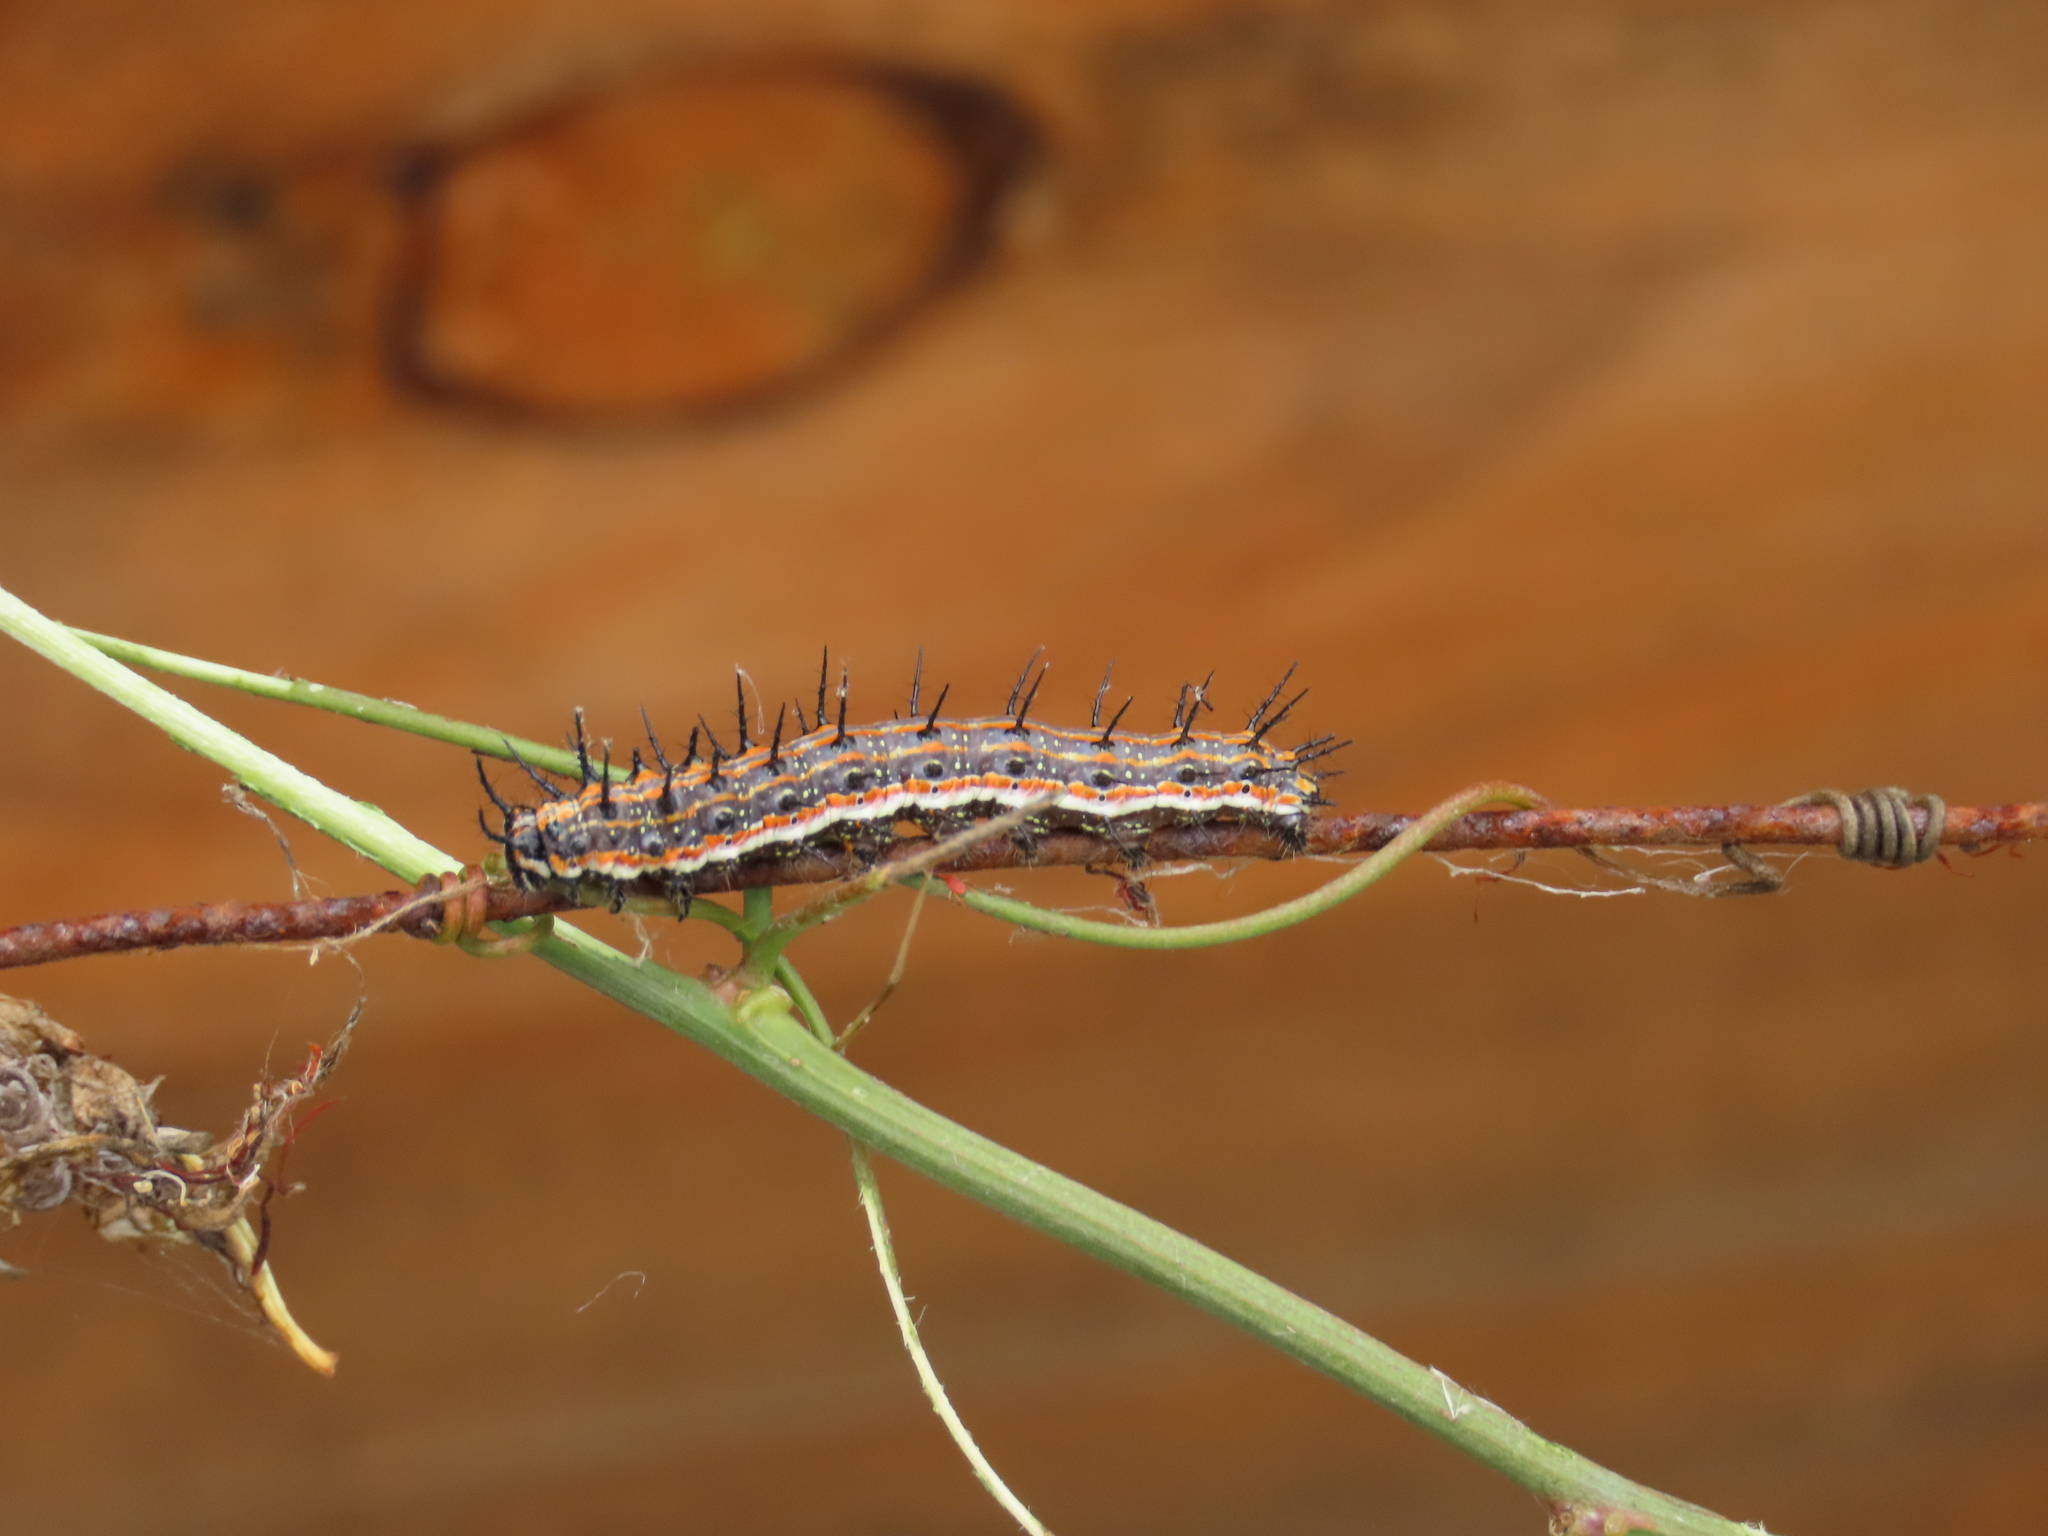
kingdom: Animalia
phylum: Arthropoda
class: Insecta
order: Lepidoptera
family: Nymphalidae
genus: Dione
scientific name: Dione vanillae
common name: Gulf fritillary
